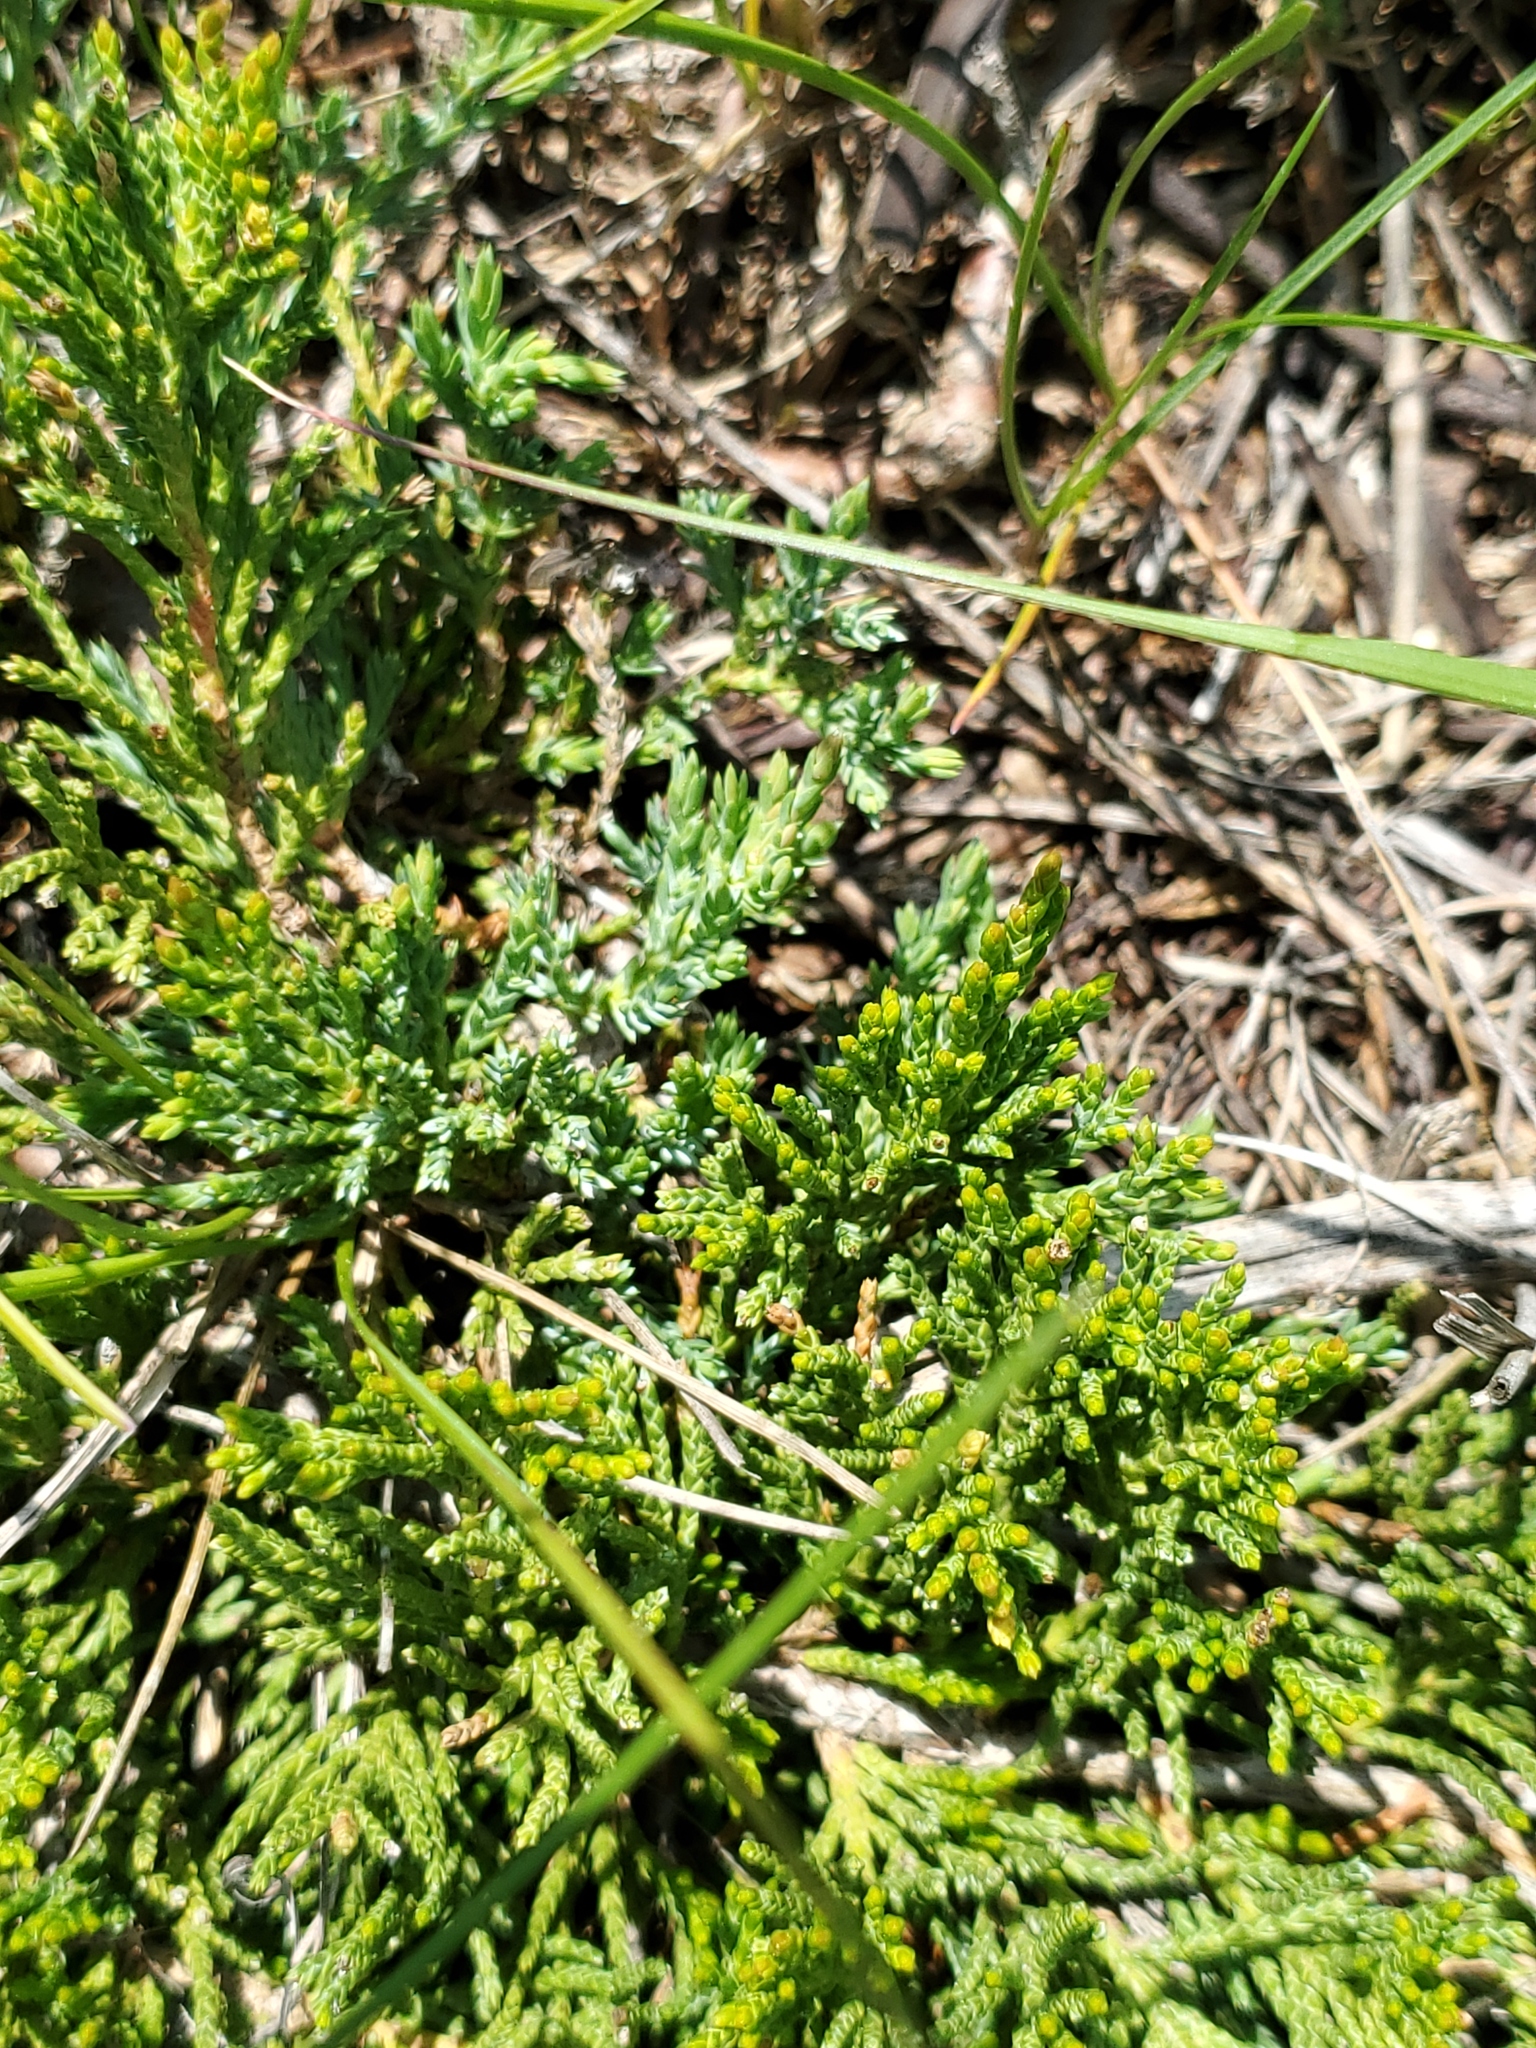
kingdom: Plantae
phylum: Tracheophyta
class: Pinopsida
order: Pinales
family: Cupressaceae
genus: Juniperus
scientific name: Juniperus horizontalis
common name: Creeping juniper
